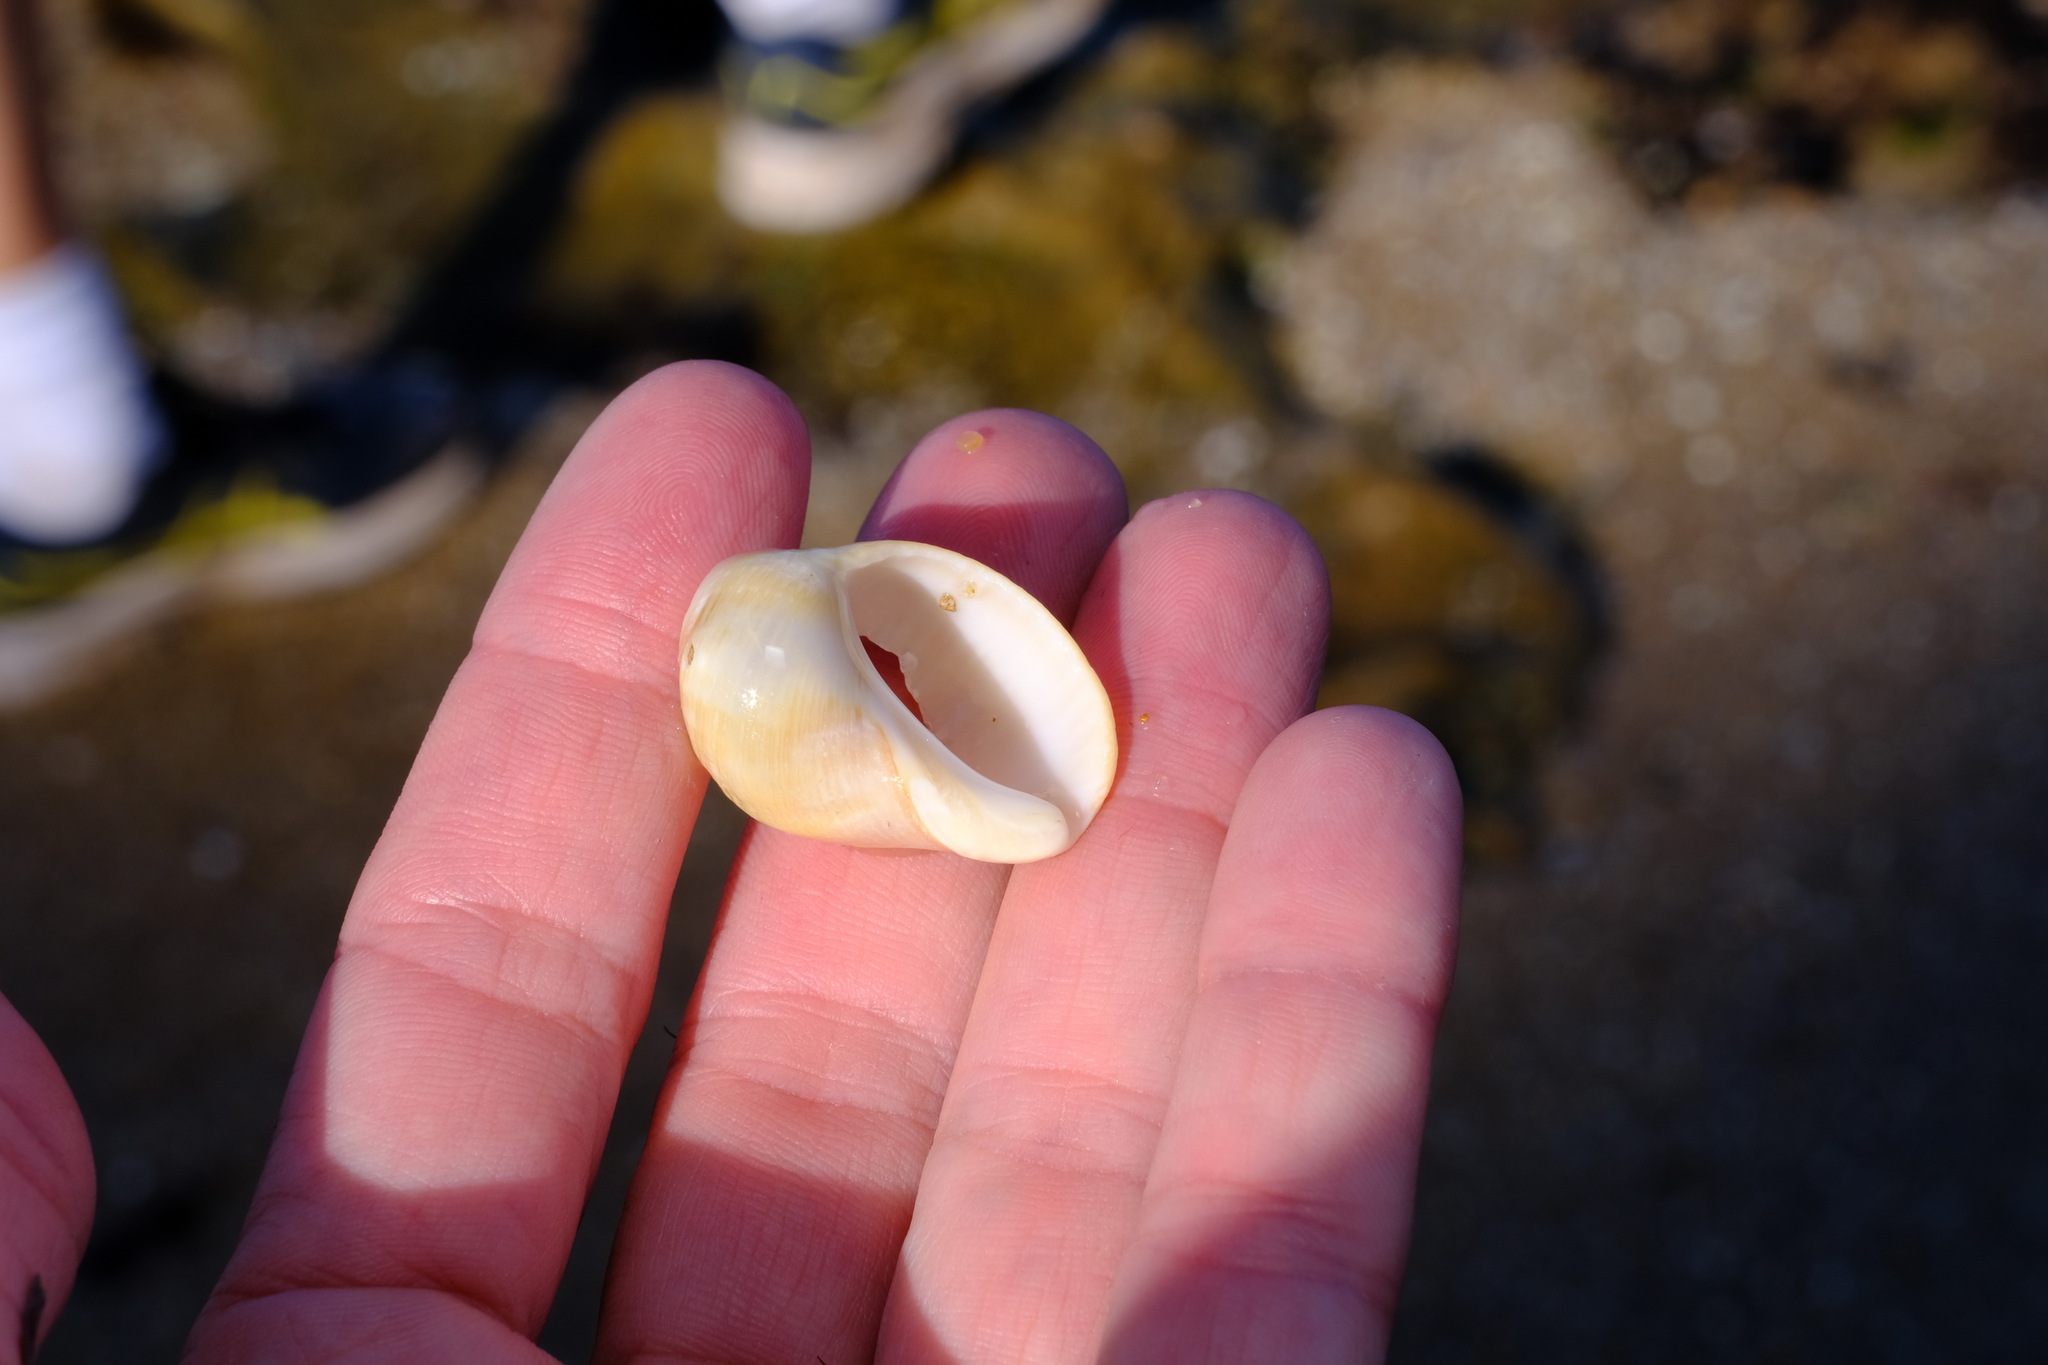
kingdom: Animalia
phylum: Mollusca
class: Gastropoda
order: Neogastropoda
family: Muricidae
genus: Dicathais
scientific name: Dicathais orbita
